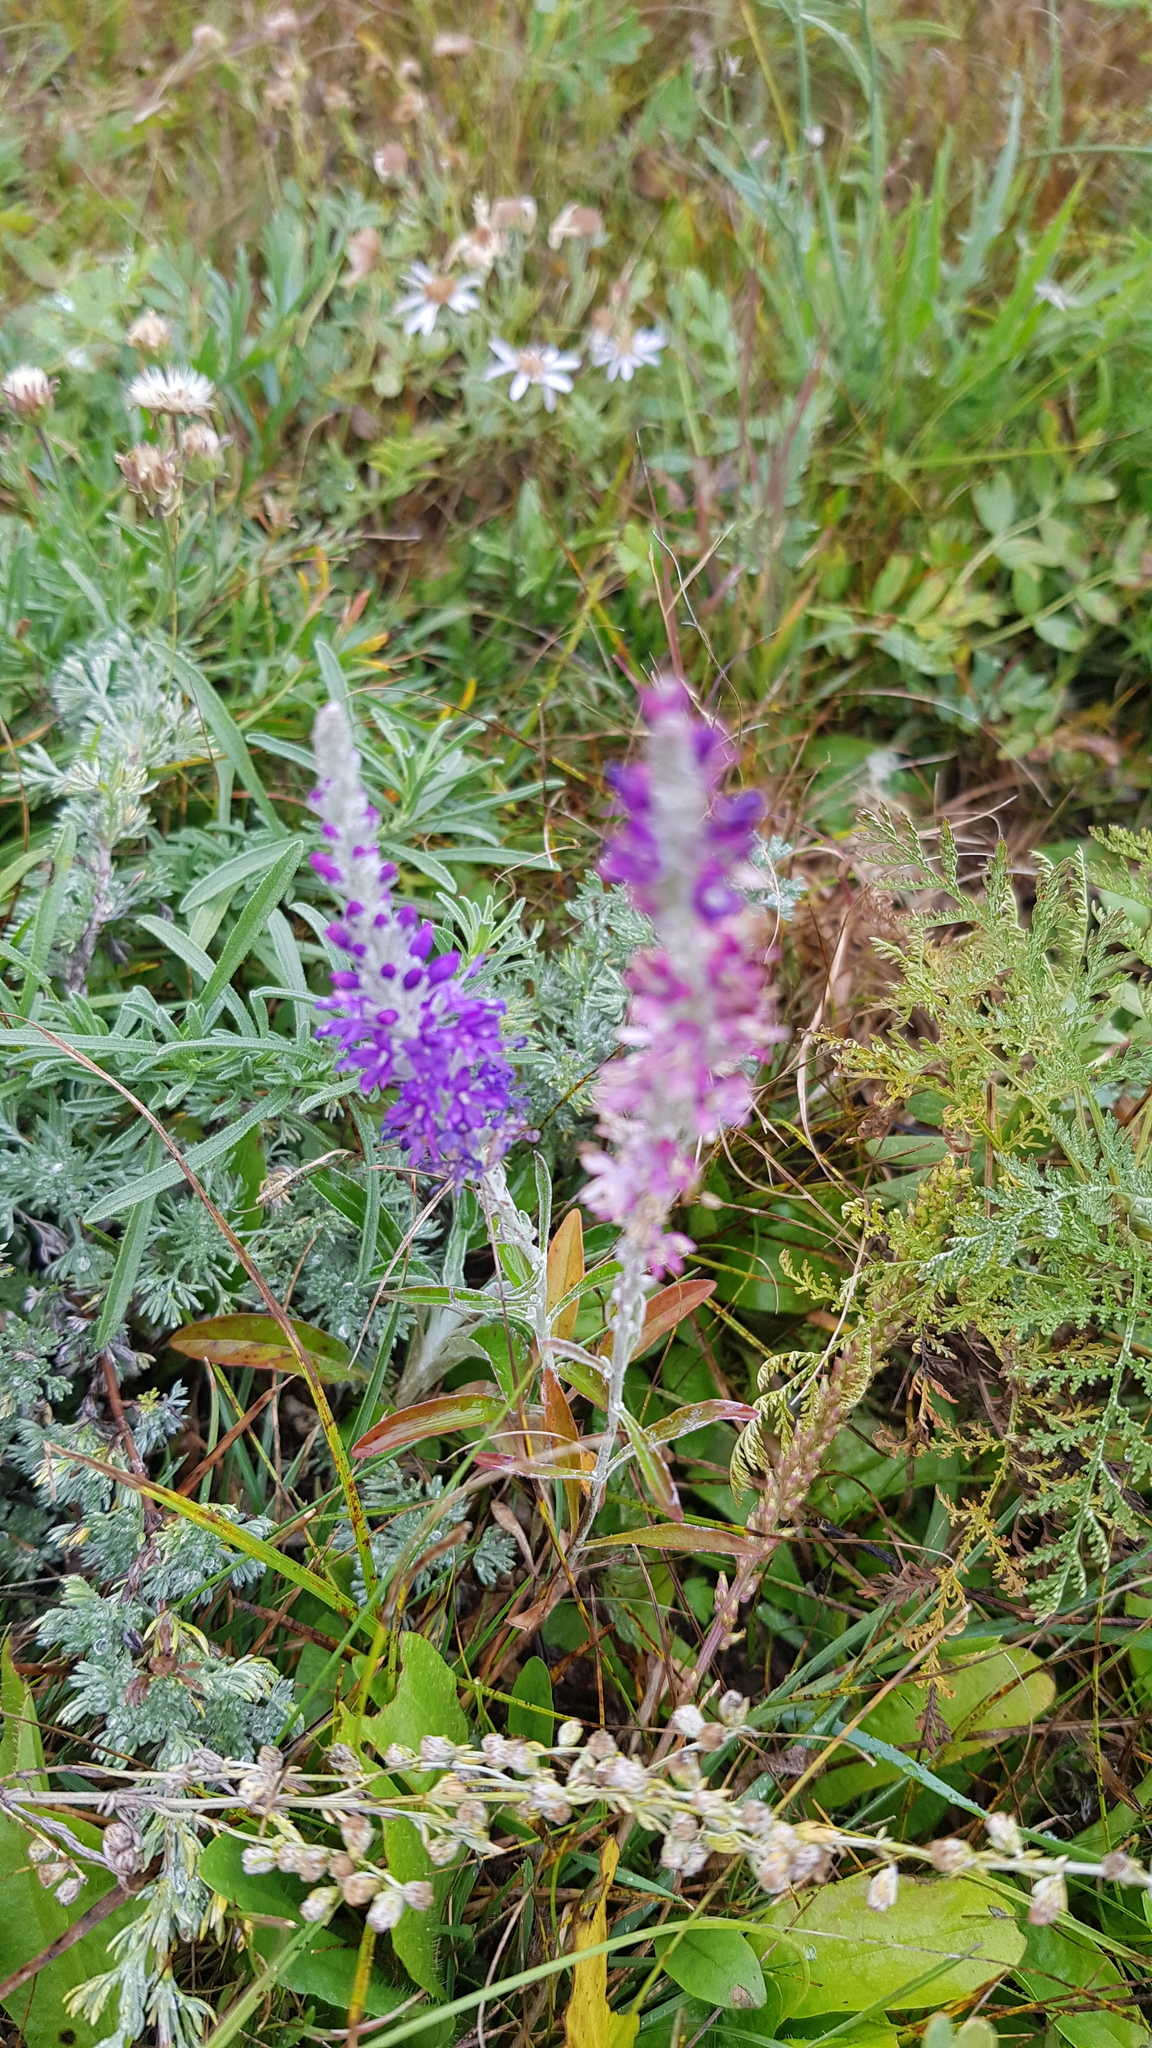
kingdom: Plantae
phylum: Tracheophyta
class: Magnoliopsida
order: Lamiales
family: Plantaginaceae
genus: Veronica
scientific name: Veronica incana
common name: Silver speedwell
